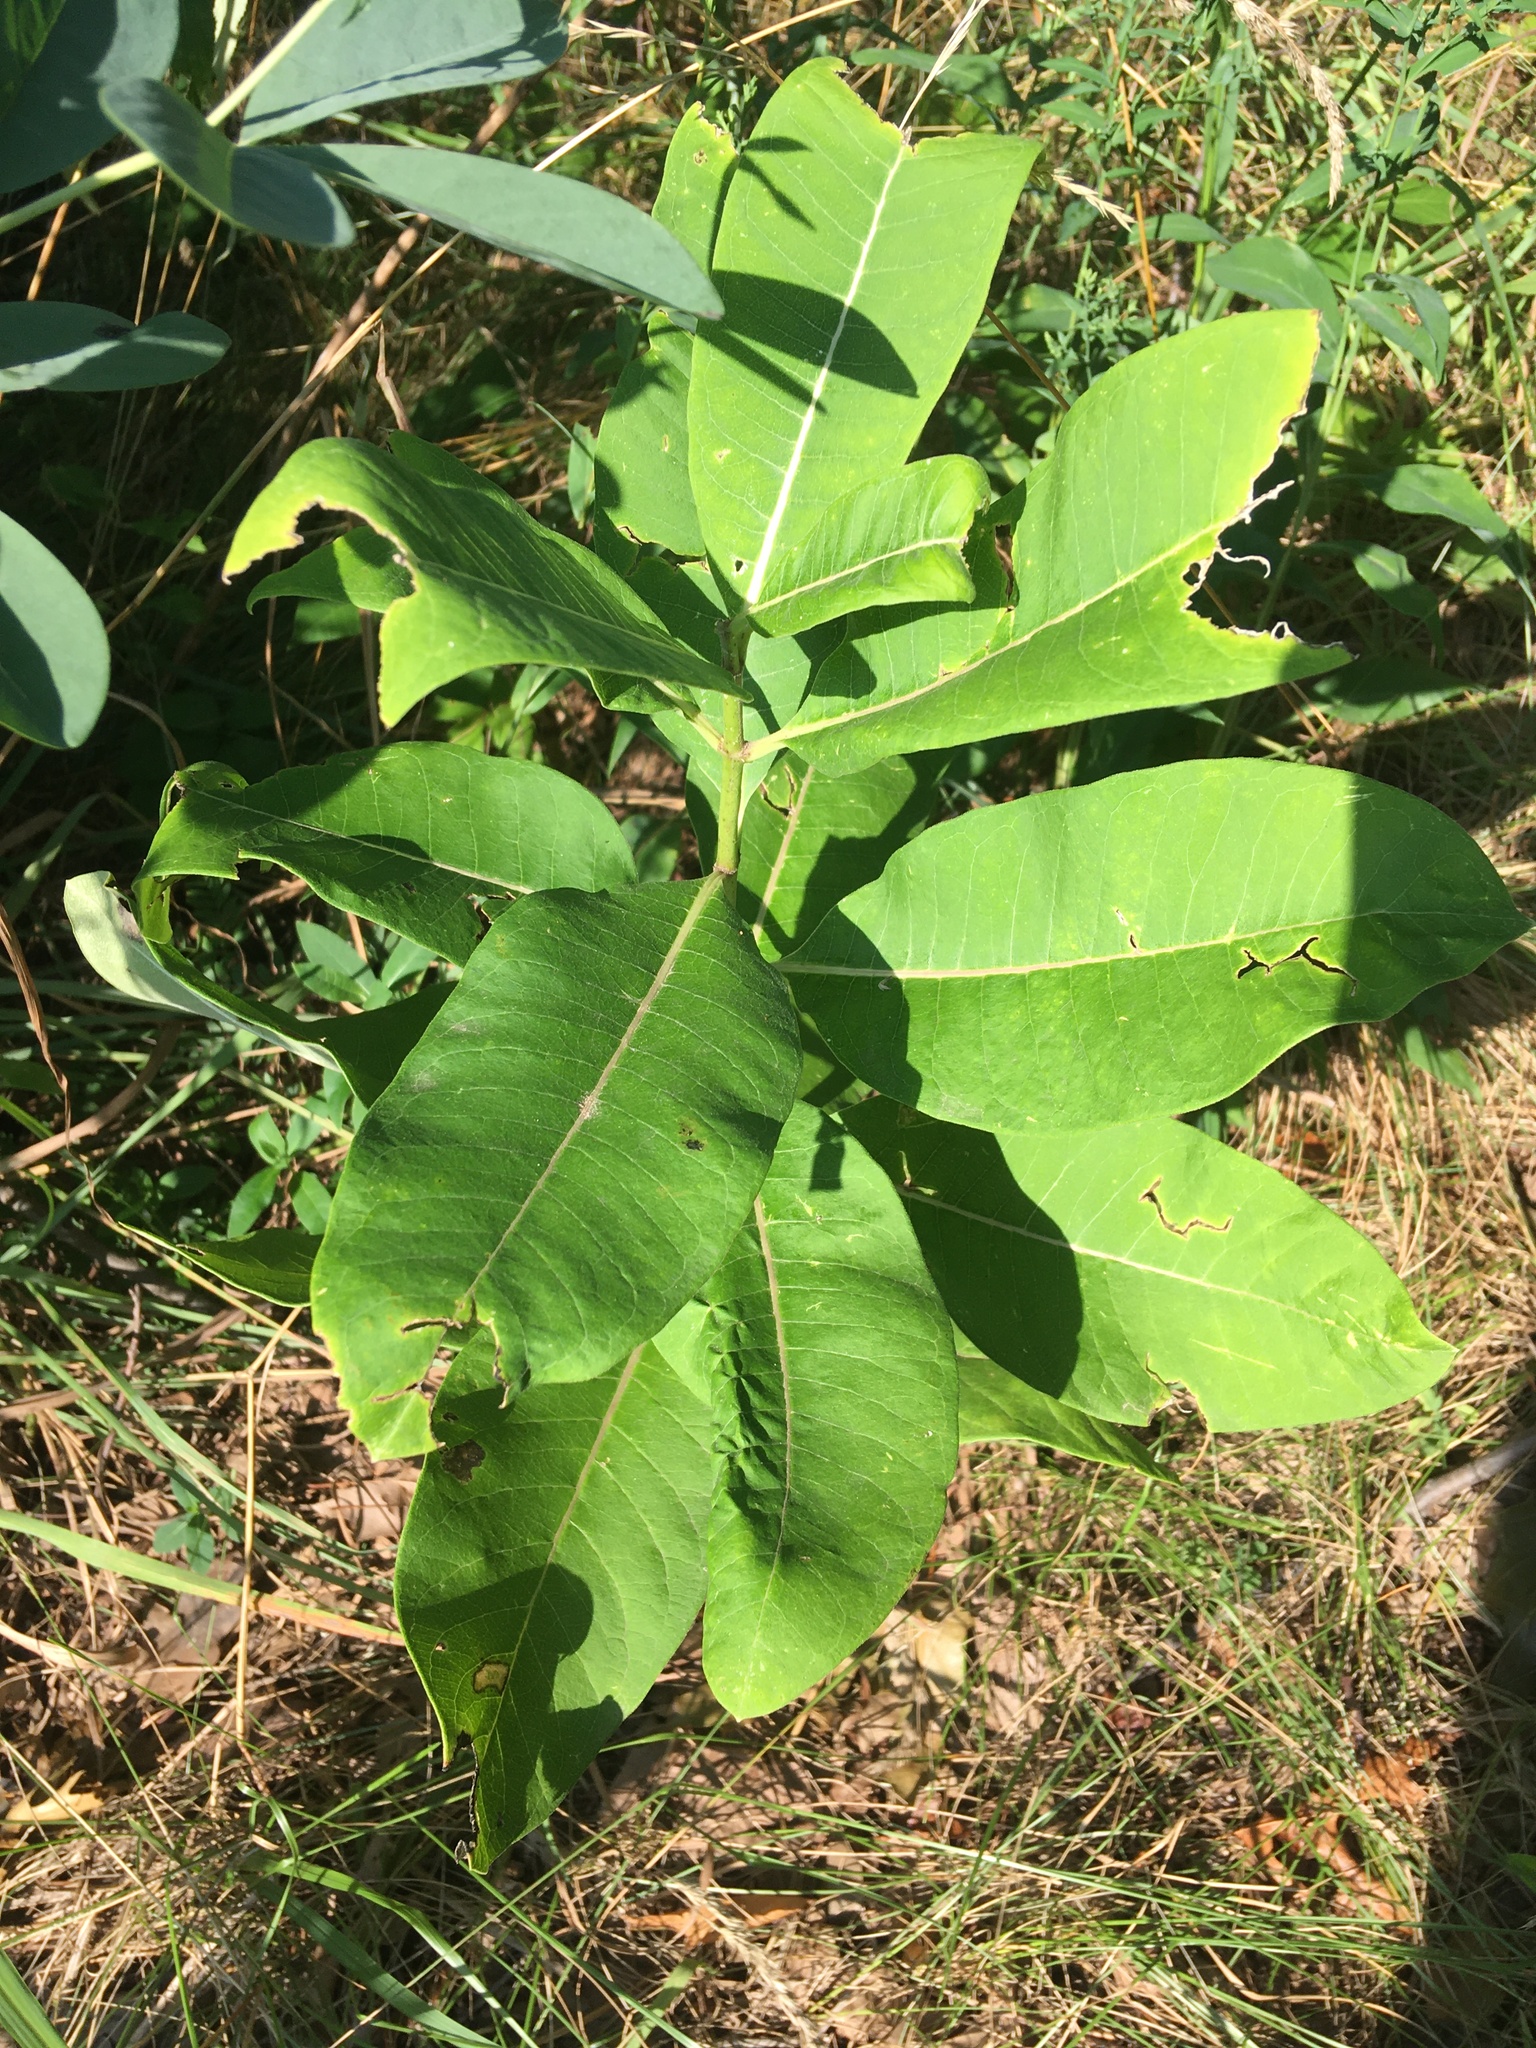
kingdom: Plantae
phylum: Tracheophyta
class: Magnoliopsida
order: Gentianales
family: Apocynaceae
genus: Asclepias
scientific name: Asclepias syriaca
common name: Common milkweed
